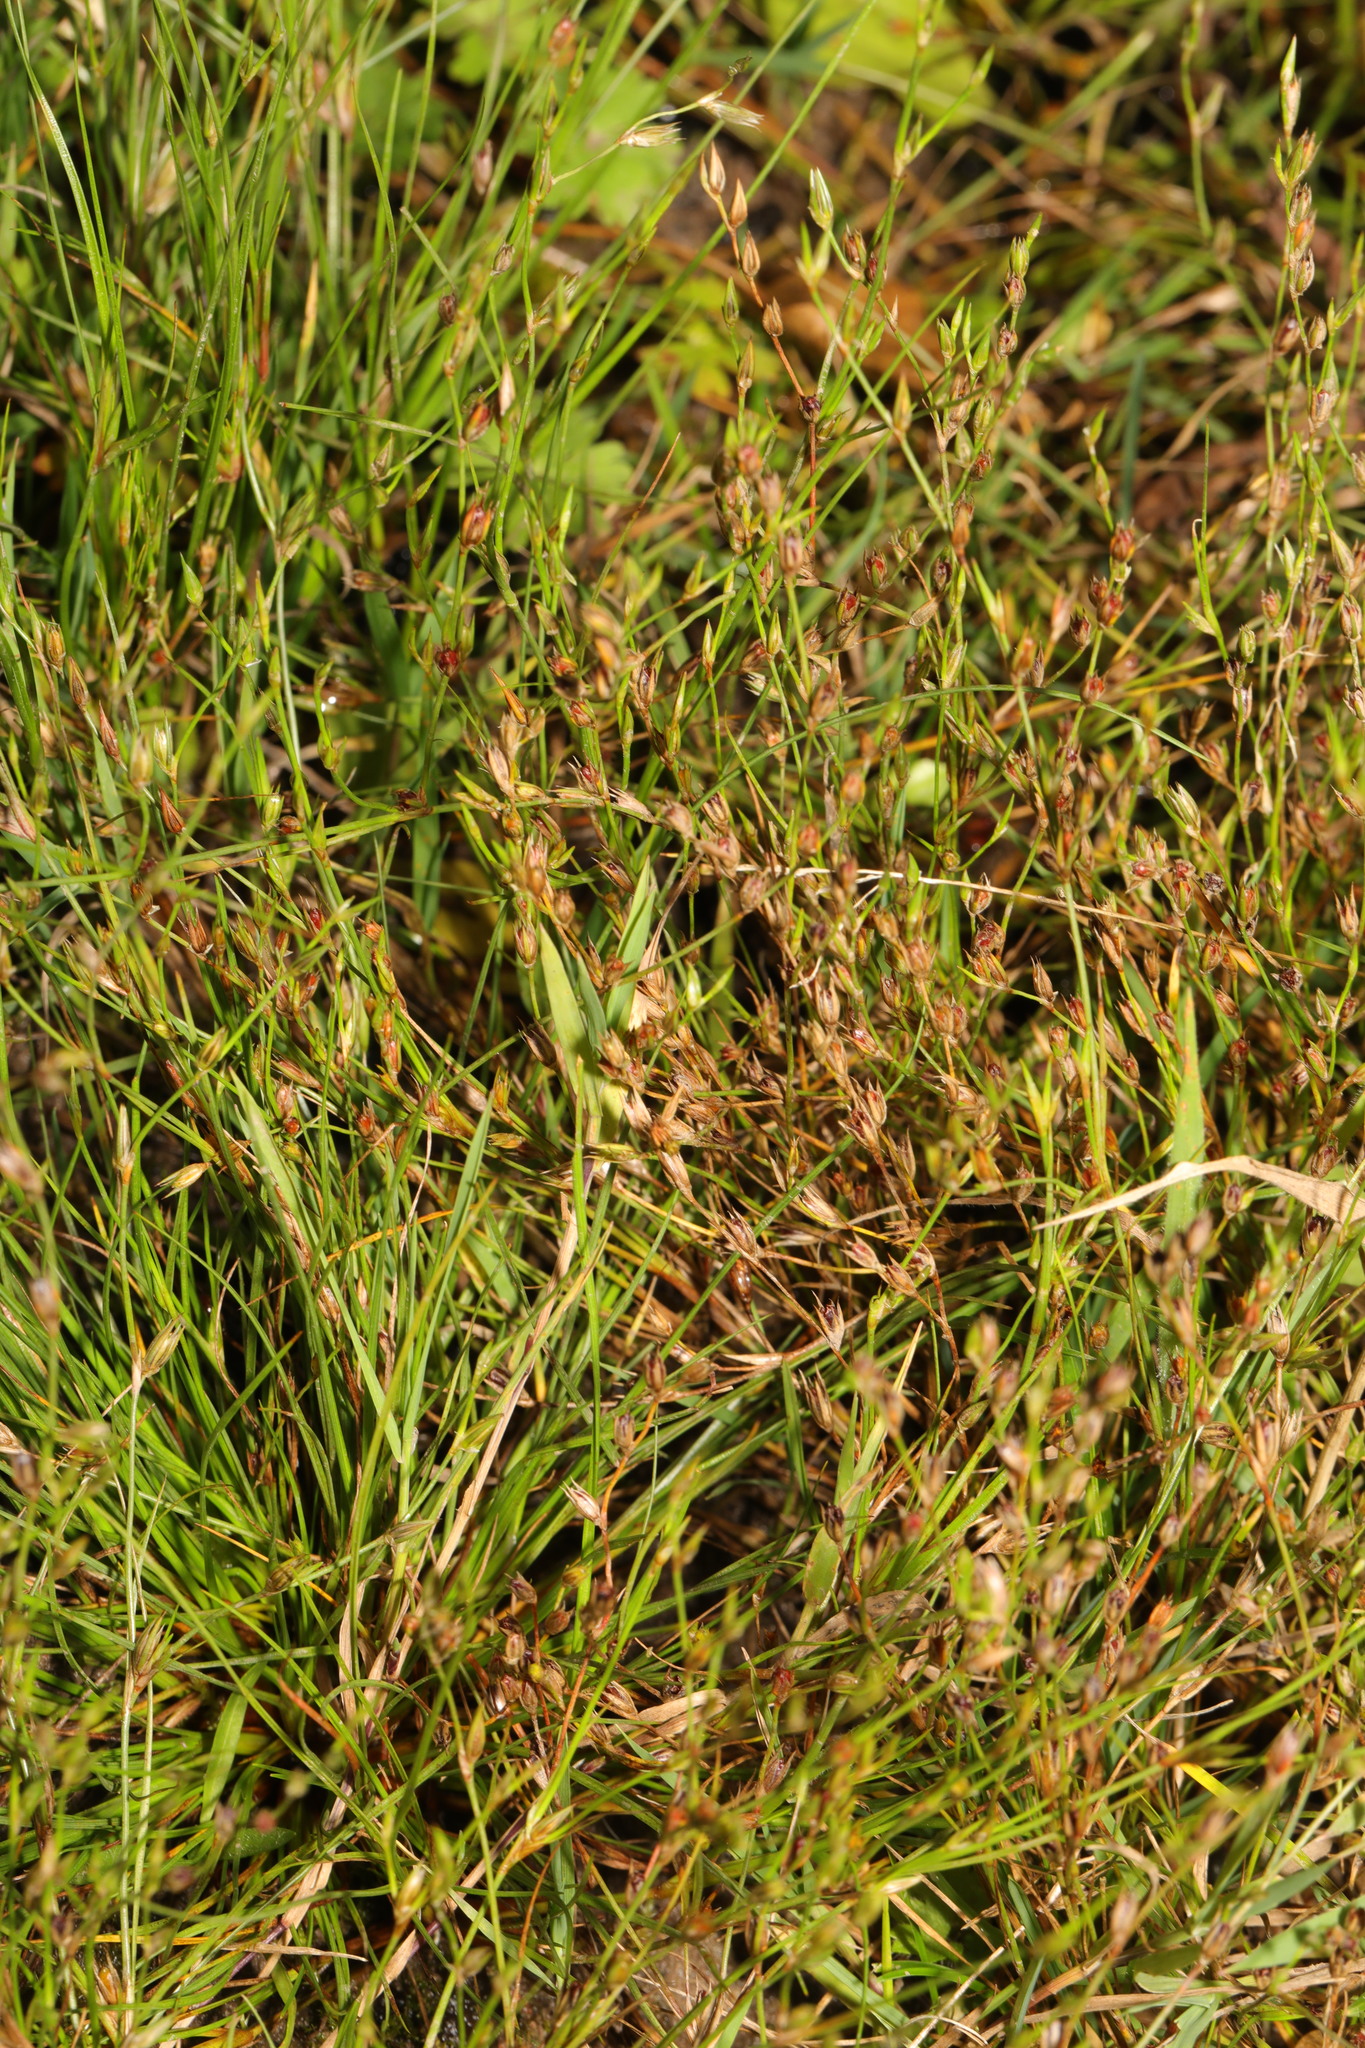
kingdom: Plantae
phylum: Tracheophyta
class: Liliopsida
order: Poales
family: Juncaceae
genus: Juncus
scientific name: Juncus bufonius
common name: Toad rush
